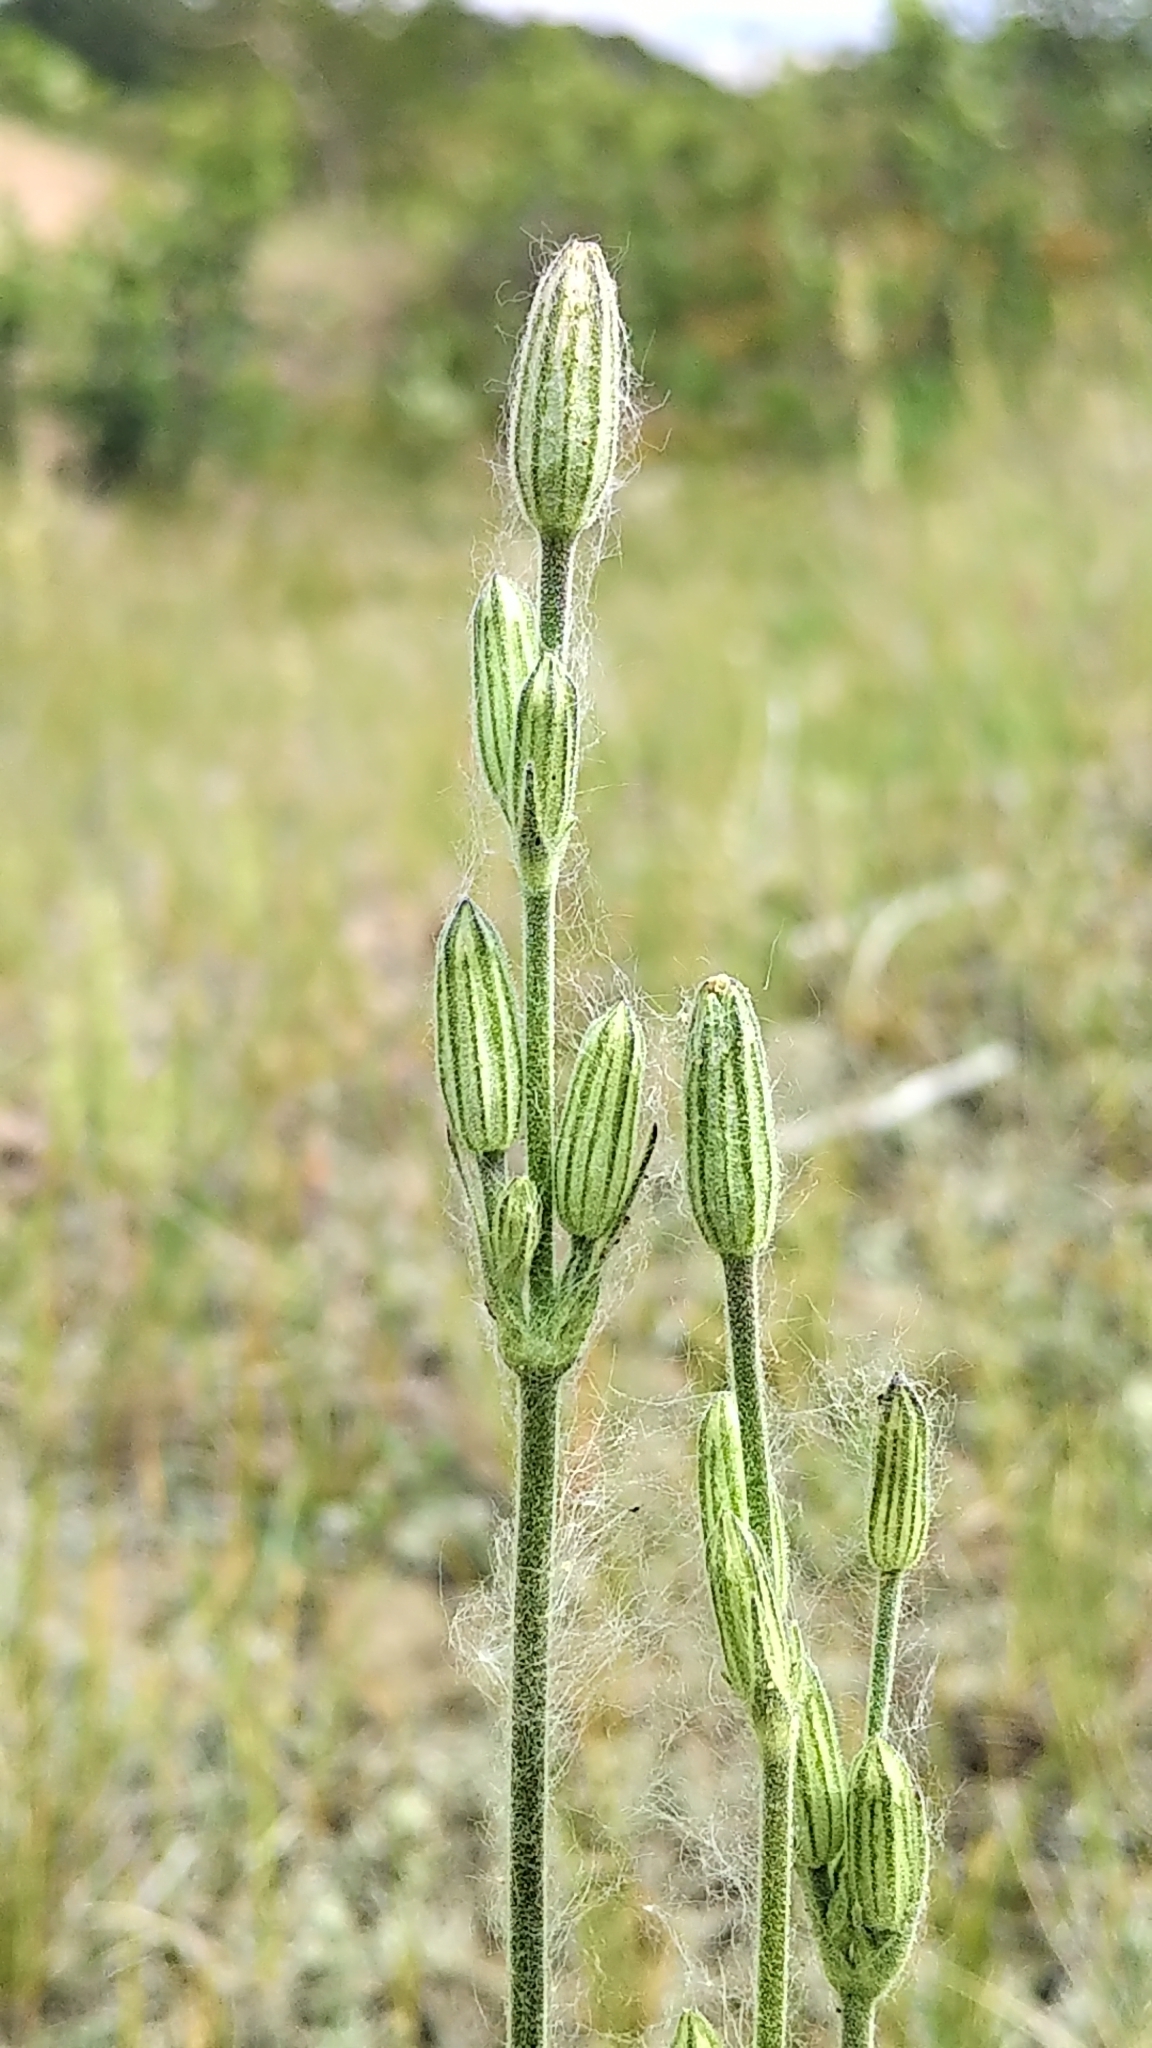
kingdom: Plantae
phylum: Tracheophyta
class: Magnoliopsida
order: Caryophyllales
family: Caryophyllaceae
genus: Silene
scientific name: Silene drummondii
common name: Drummond's catchfly
